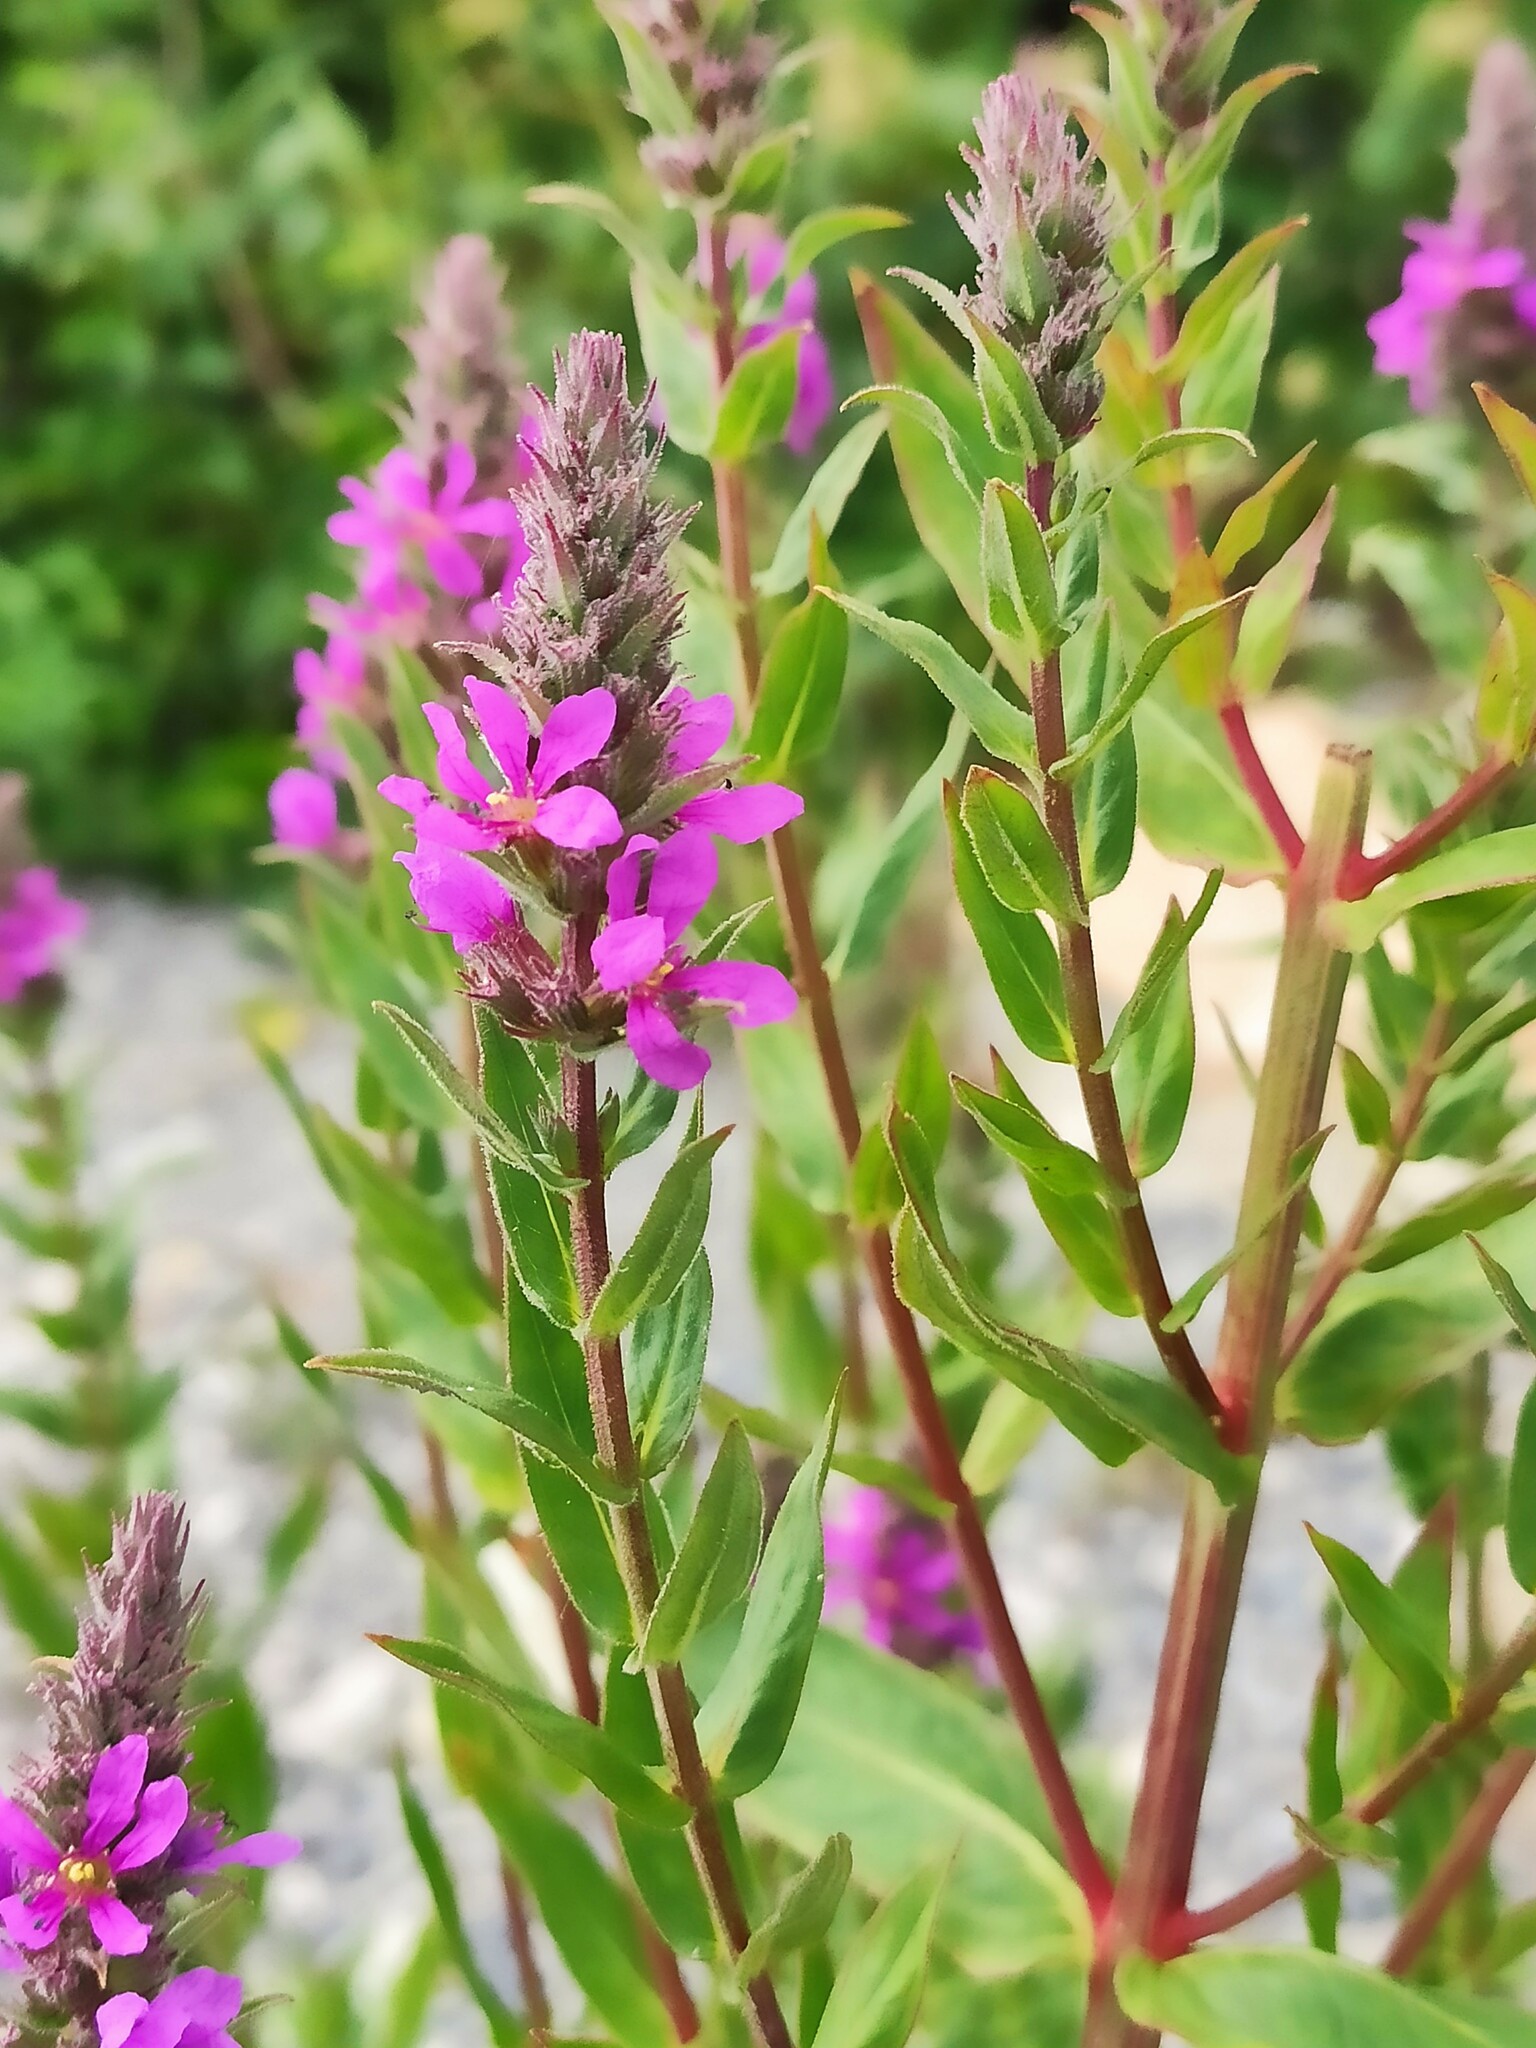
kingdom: Plantae
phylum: Tracheophyta
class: Magnoliopsida
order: Myrtales
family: Lythraceae
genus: Lythrum
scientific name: Lythrum salicaria
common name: Purple loosestrife
